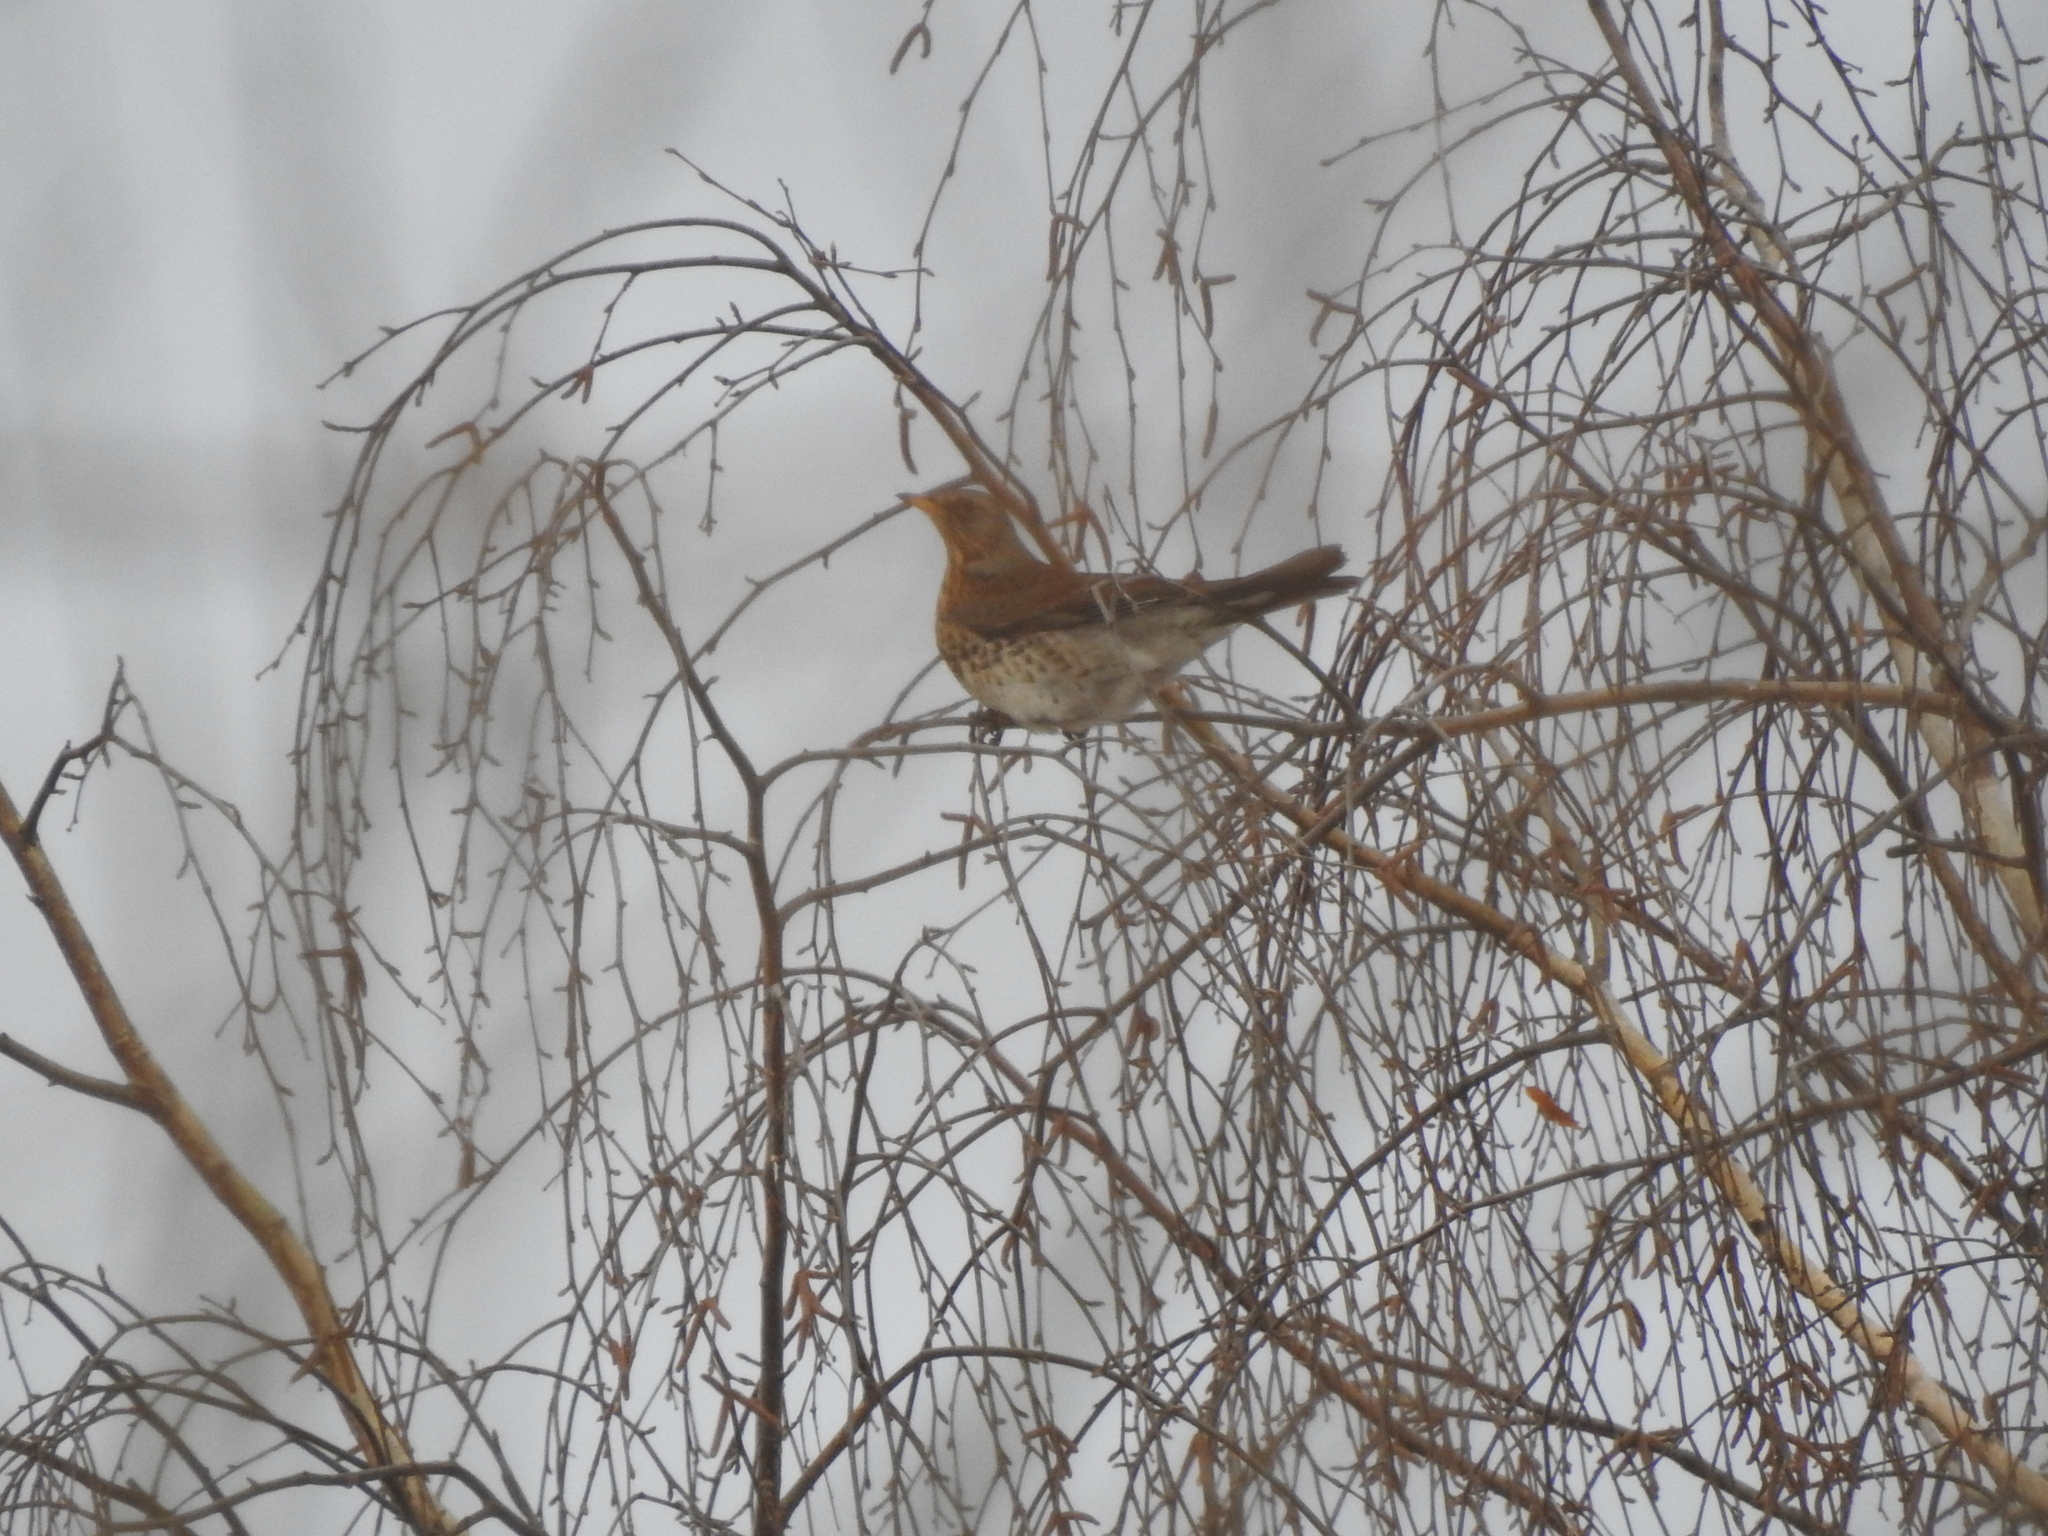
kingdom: Animalia
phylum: Chordata
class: Aves
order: Passeriformes
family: Turdidae
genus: Turdus
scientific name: Turdus pilaris
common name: Fieldfare
